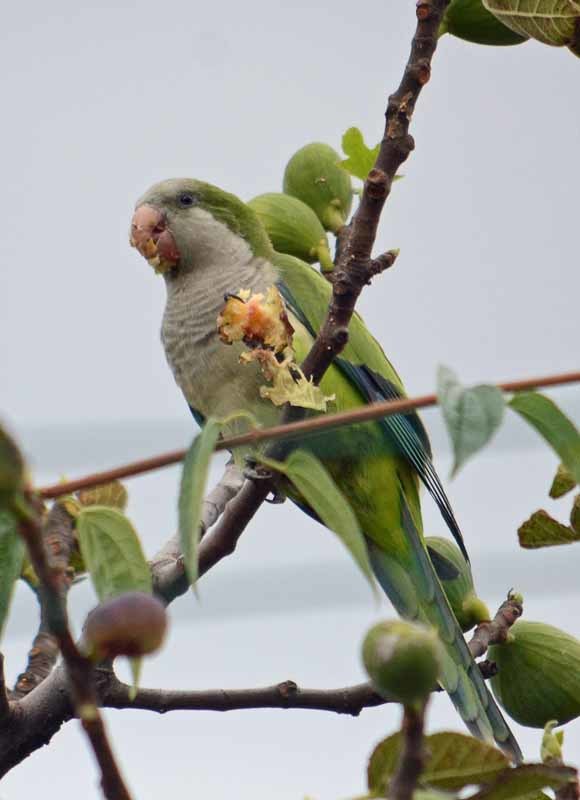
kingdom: Animalia
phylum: Chordata
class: Aves
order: Psittaciformes
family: Psittacidae
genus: Myiopsitta
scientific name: Myiopsitta monachus
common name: Monk parakeet
